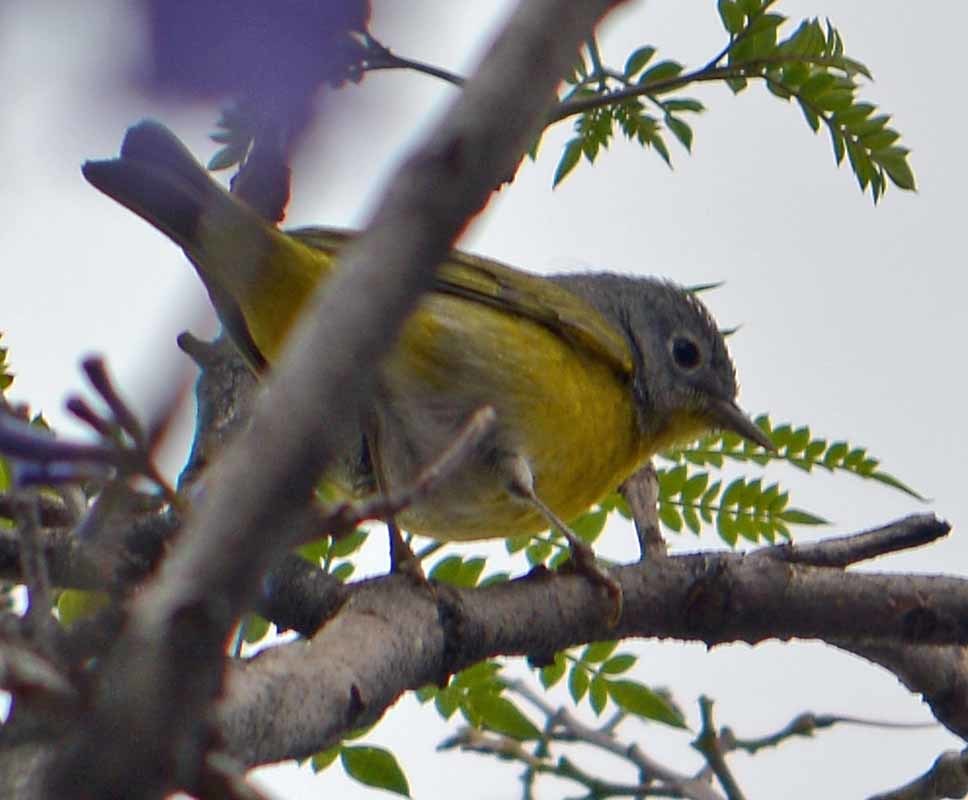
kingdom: Animalia
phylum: Chordata
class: Aves
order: Passeriformes
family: Parulidae
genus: Leiothlypis
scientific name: Leiothlypis ruficapilla
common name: Nashville warbler
